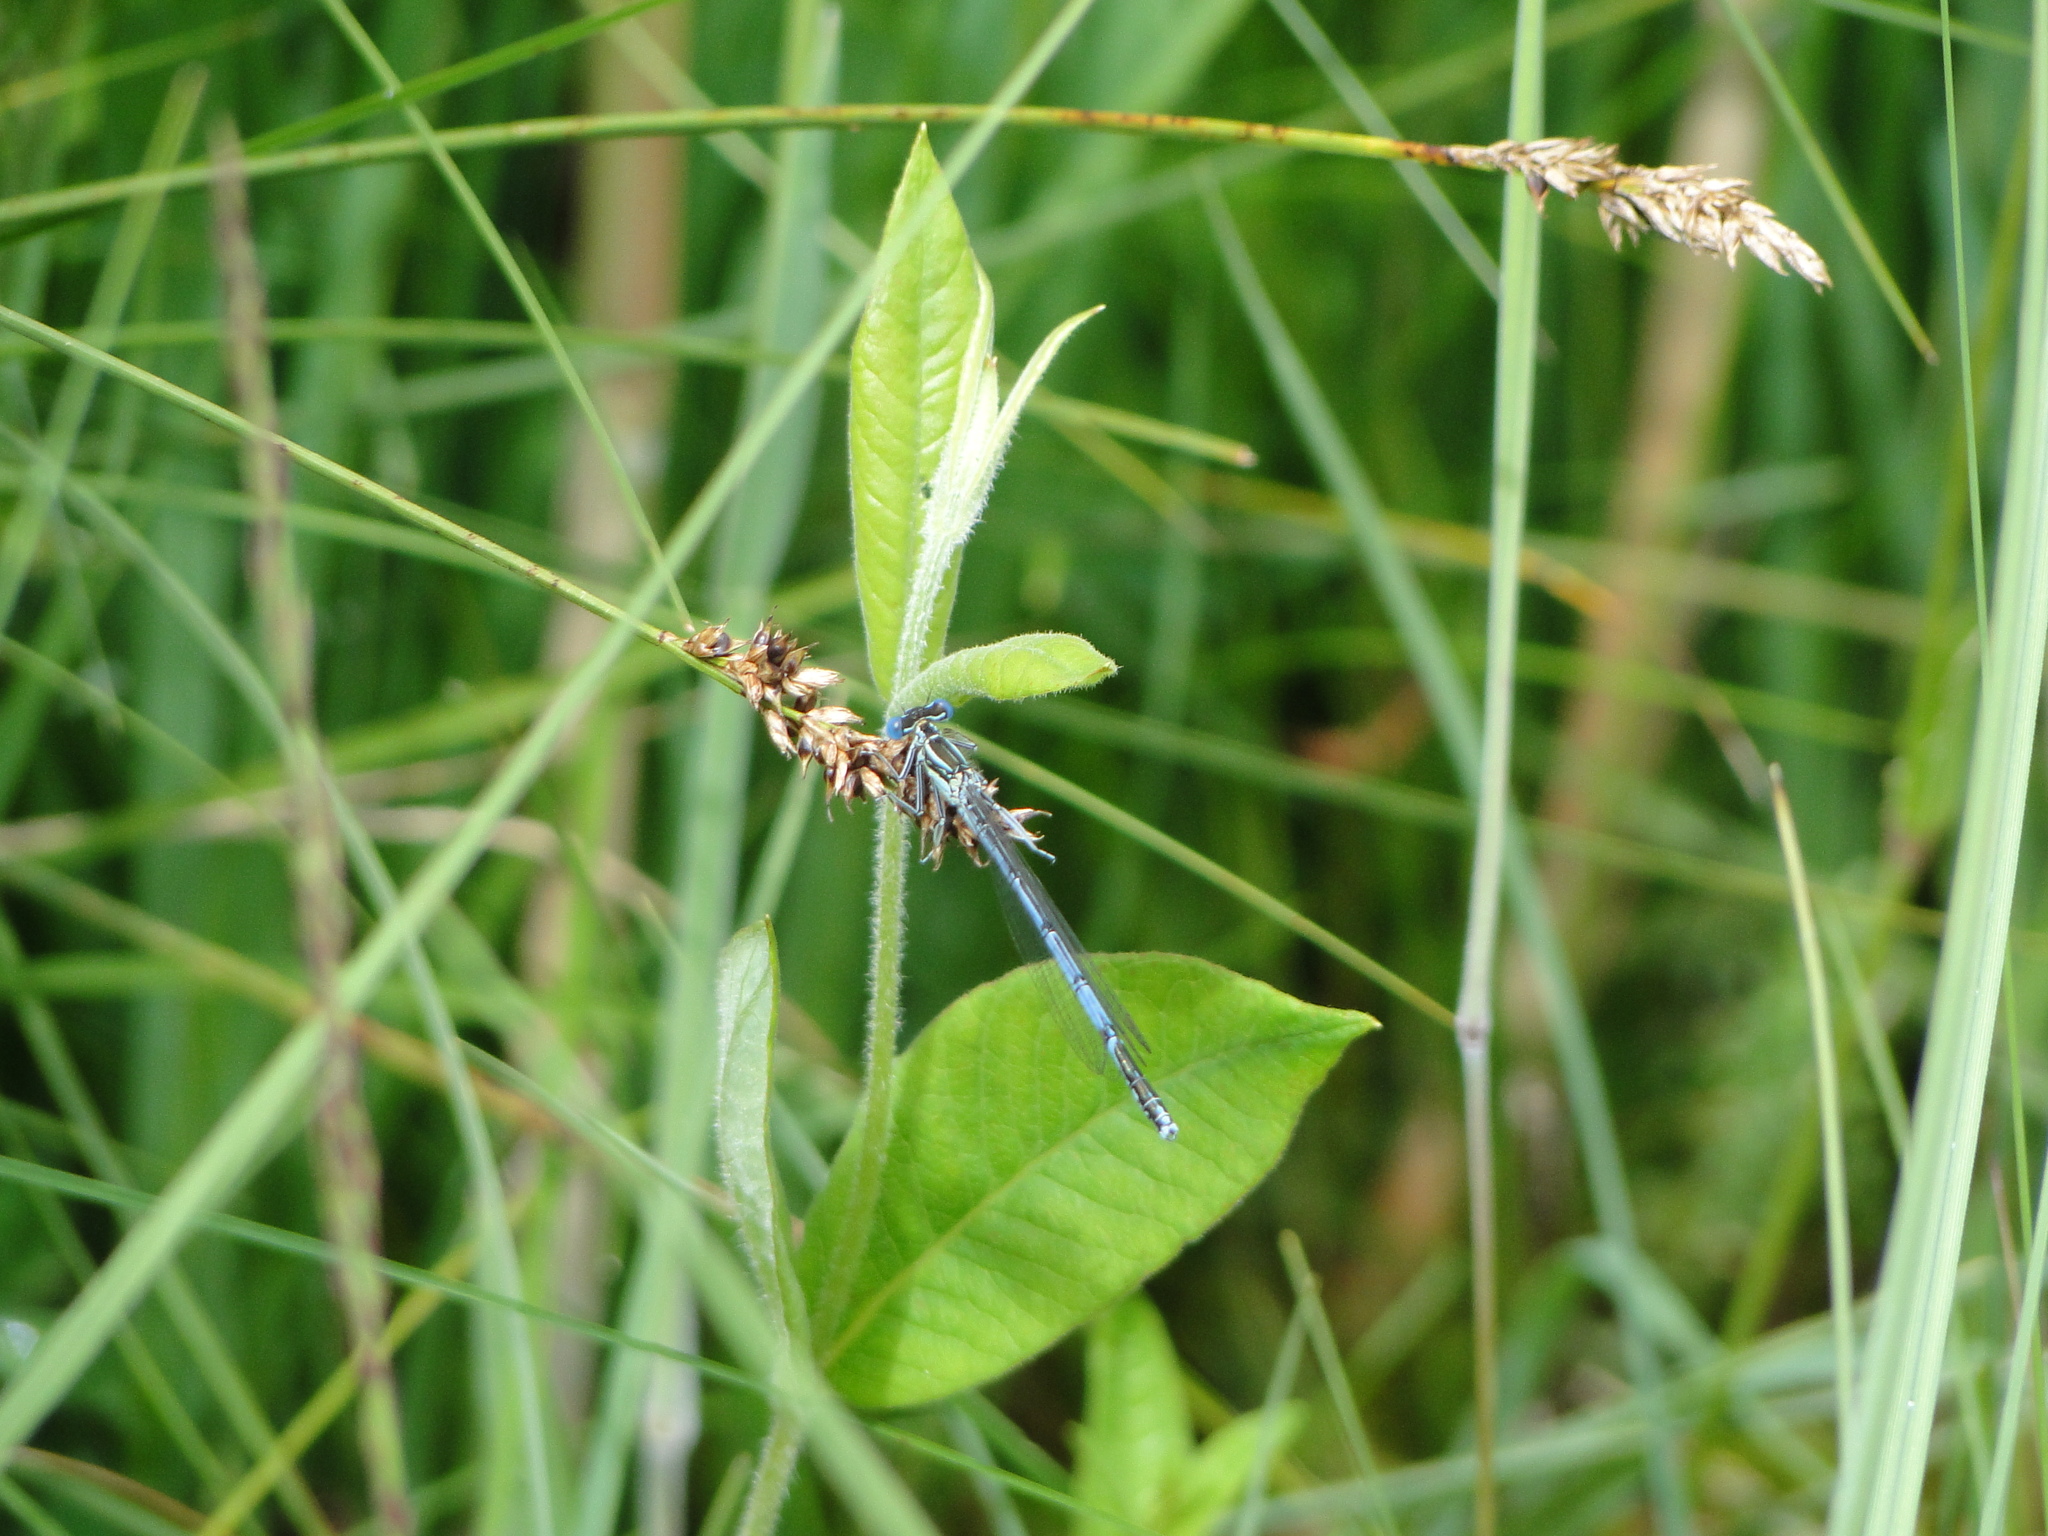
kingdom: Animalia
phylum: Arthropoda
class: Insecta
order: Odonata
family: Platycnemididae
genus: Platycnemis
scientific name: Platycnemis pennipes
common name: White-legged damselfly
